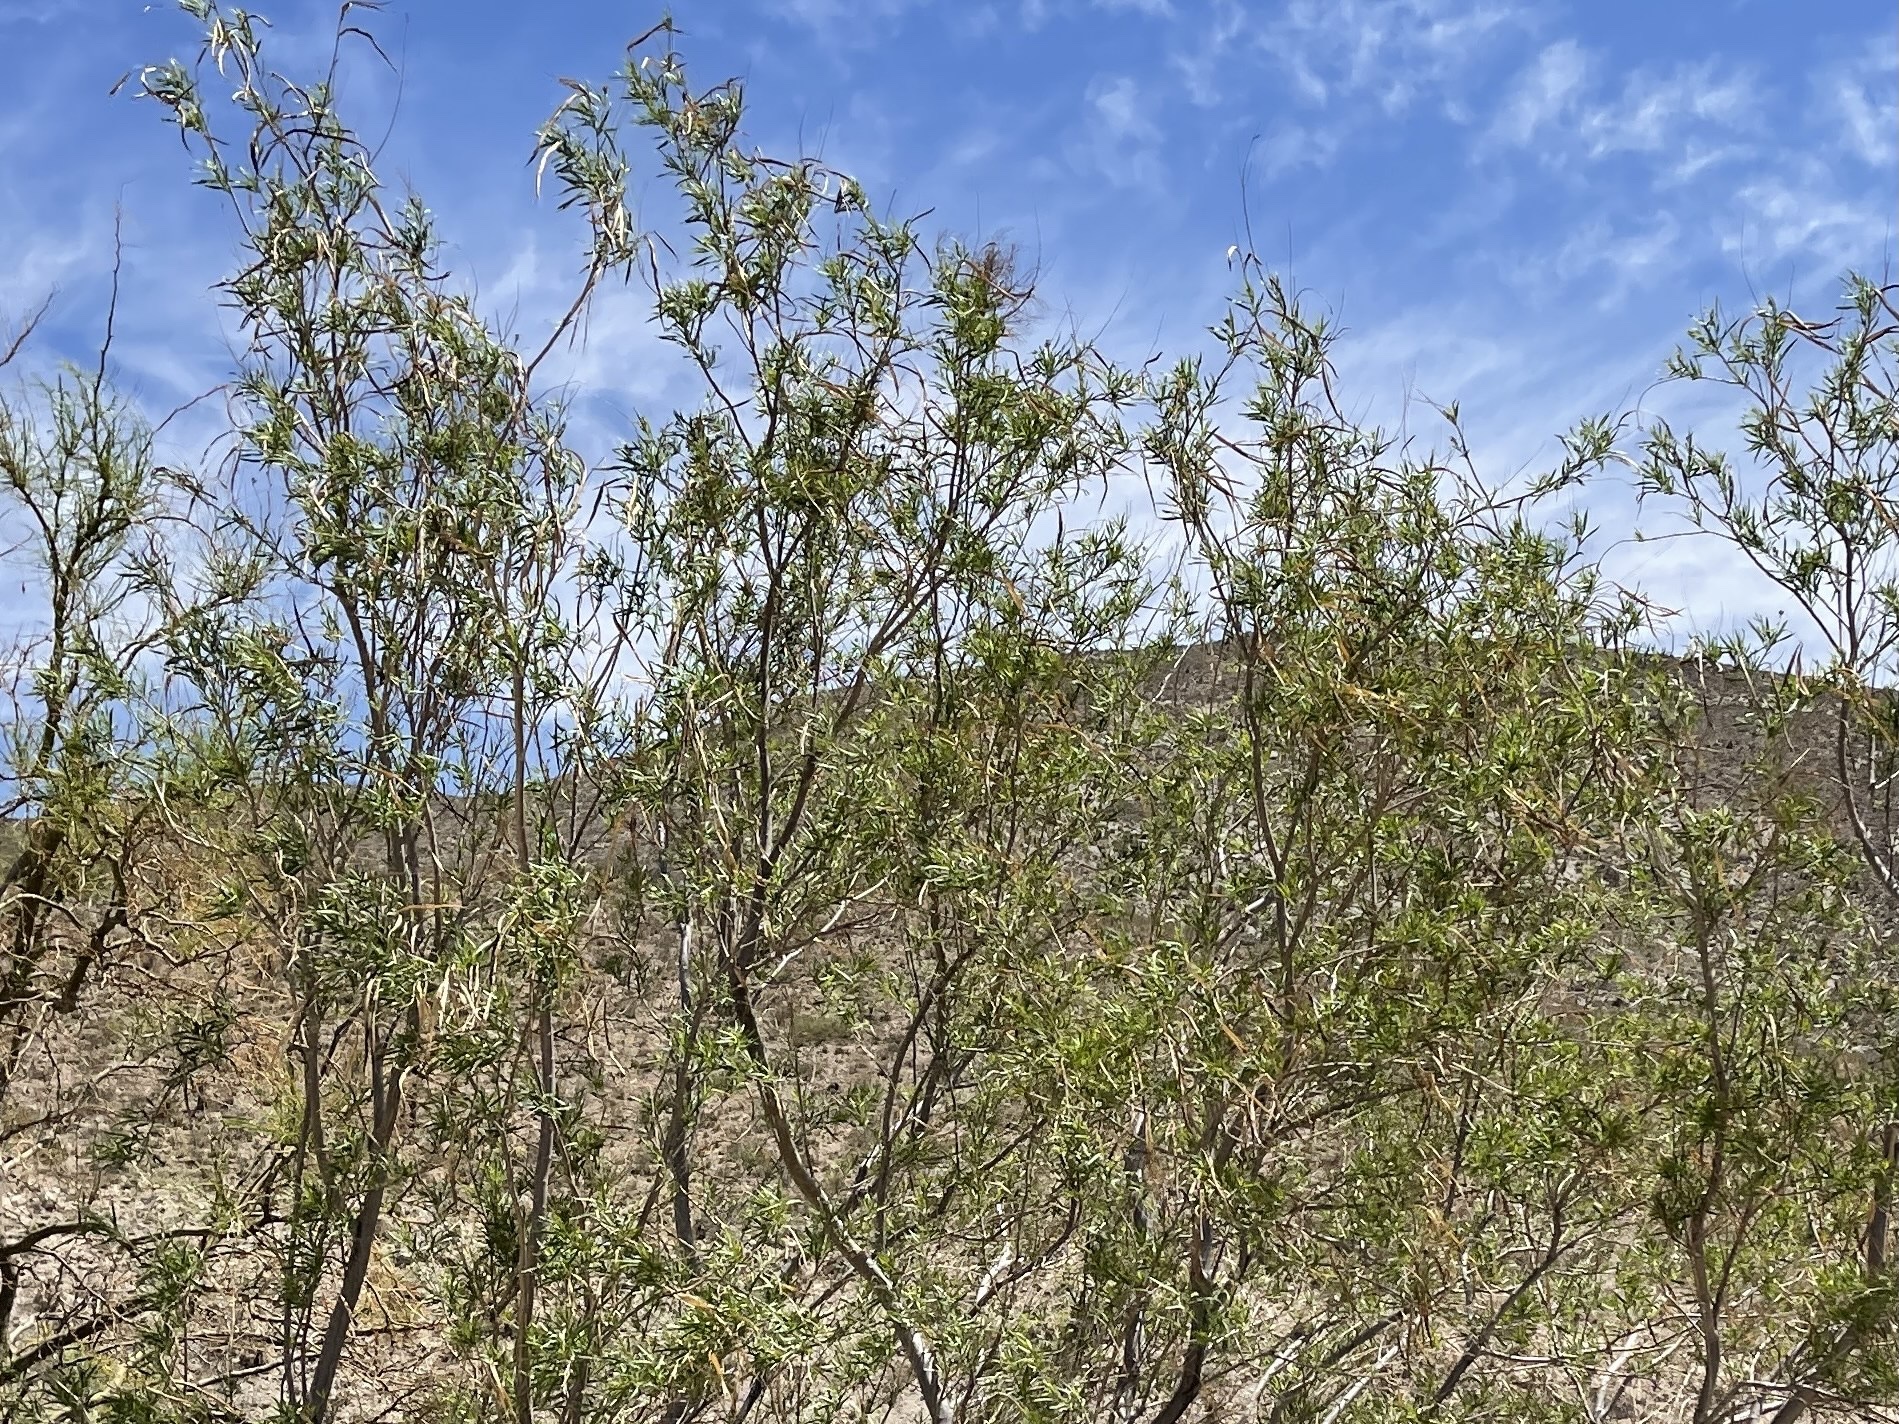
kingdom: Plantae
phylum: Tracheophyta
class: Magnoliopsida
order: Lamiales
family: Bignoniaceae
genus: Chilopsis
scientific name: Chilopsis linearis
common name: Desert-willow
